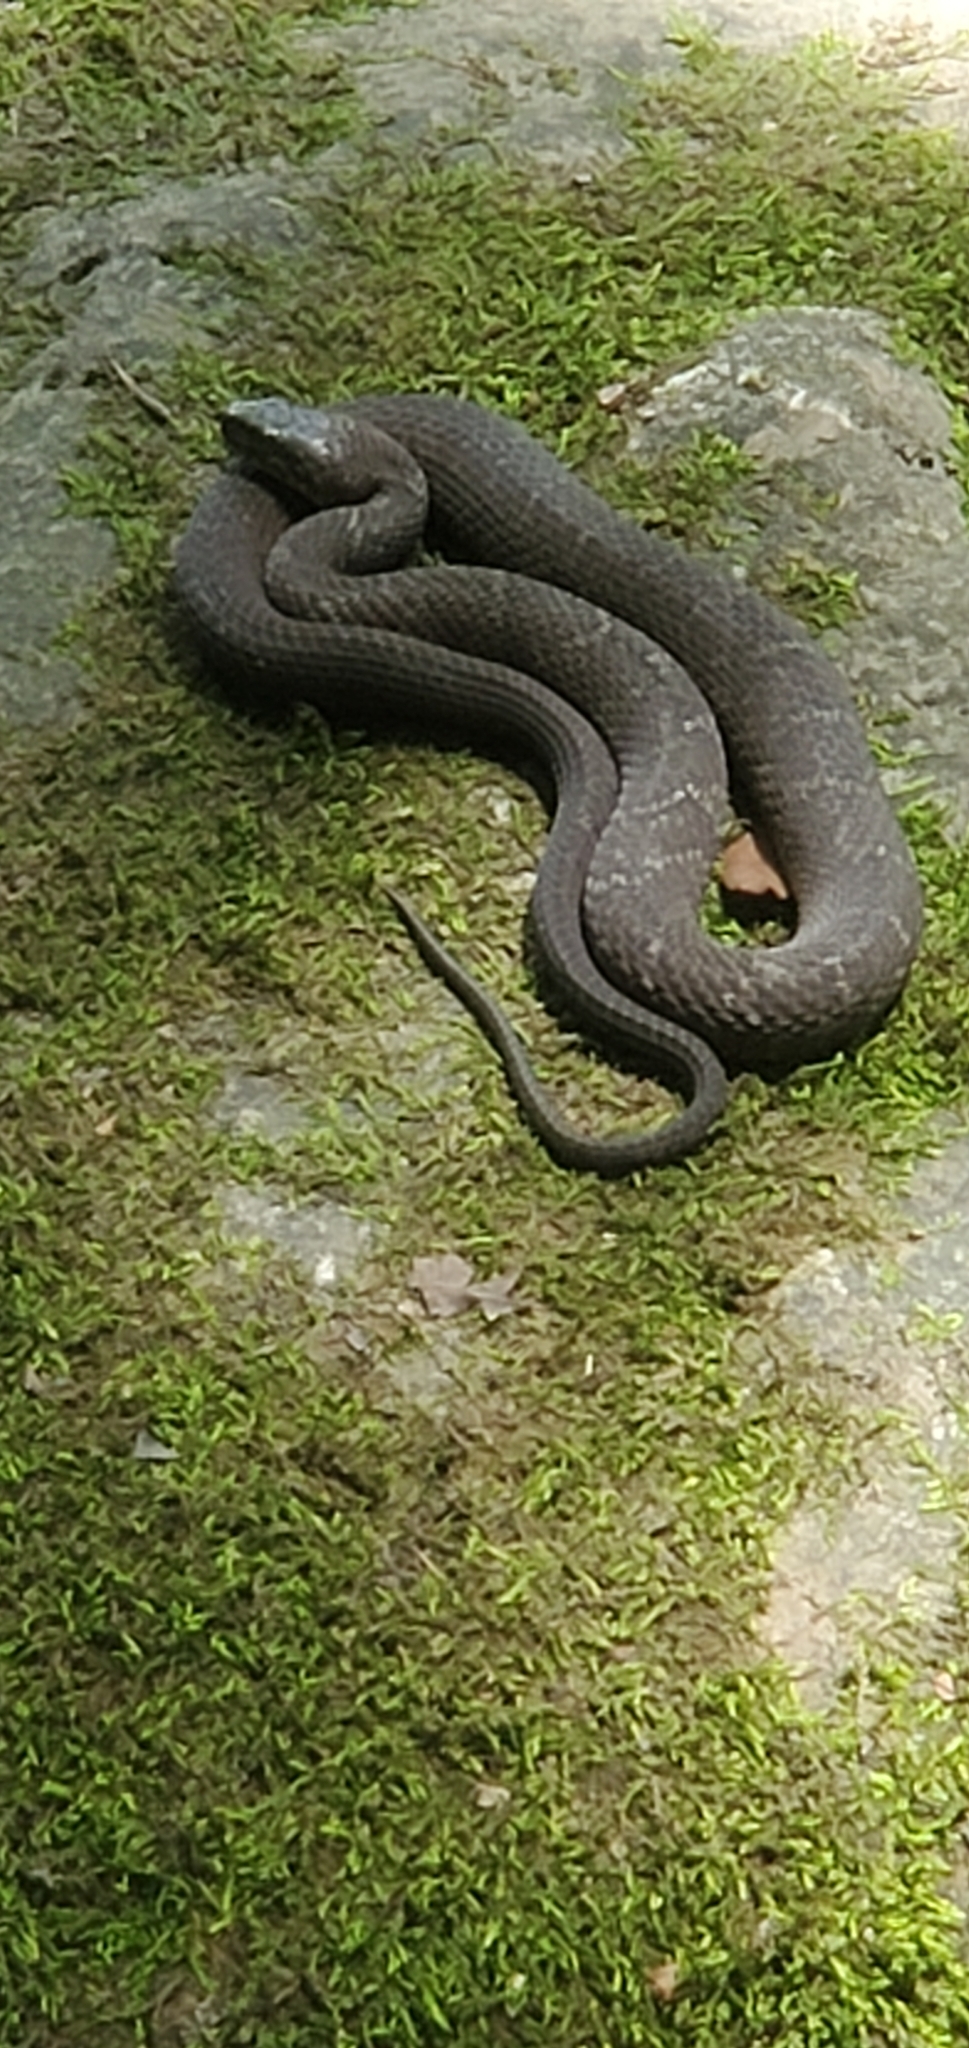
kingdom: Animalia
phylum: Chordata
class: Squamata
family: Colubridae
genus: Nerodia
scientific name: Nerodia sipedon
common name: Northern water snake
